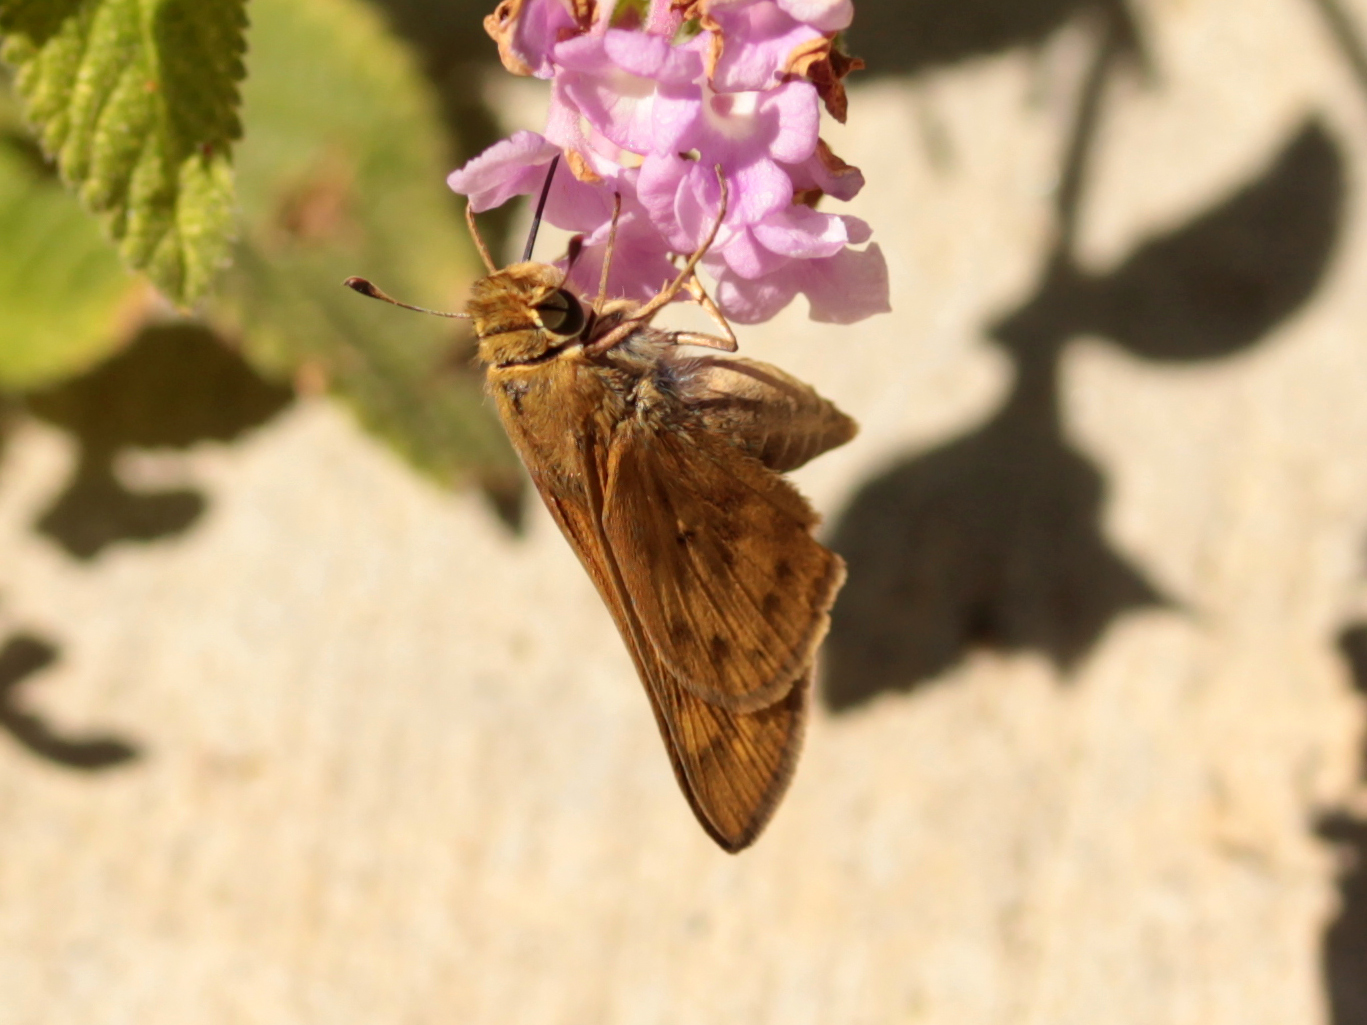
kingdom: Animalia
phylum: Arthropoda
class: Insecta
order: Lepidoptera
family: Hesperiidae
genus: Hylephila
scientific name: Hylephila phyleus
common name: Fiery skipper
